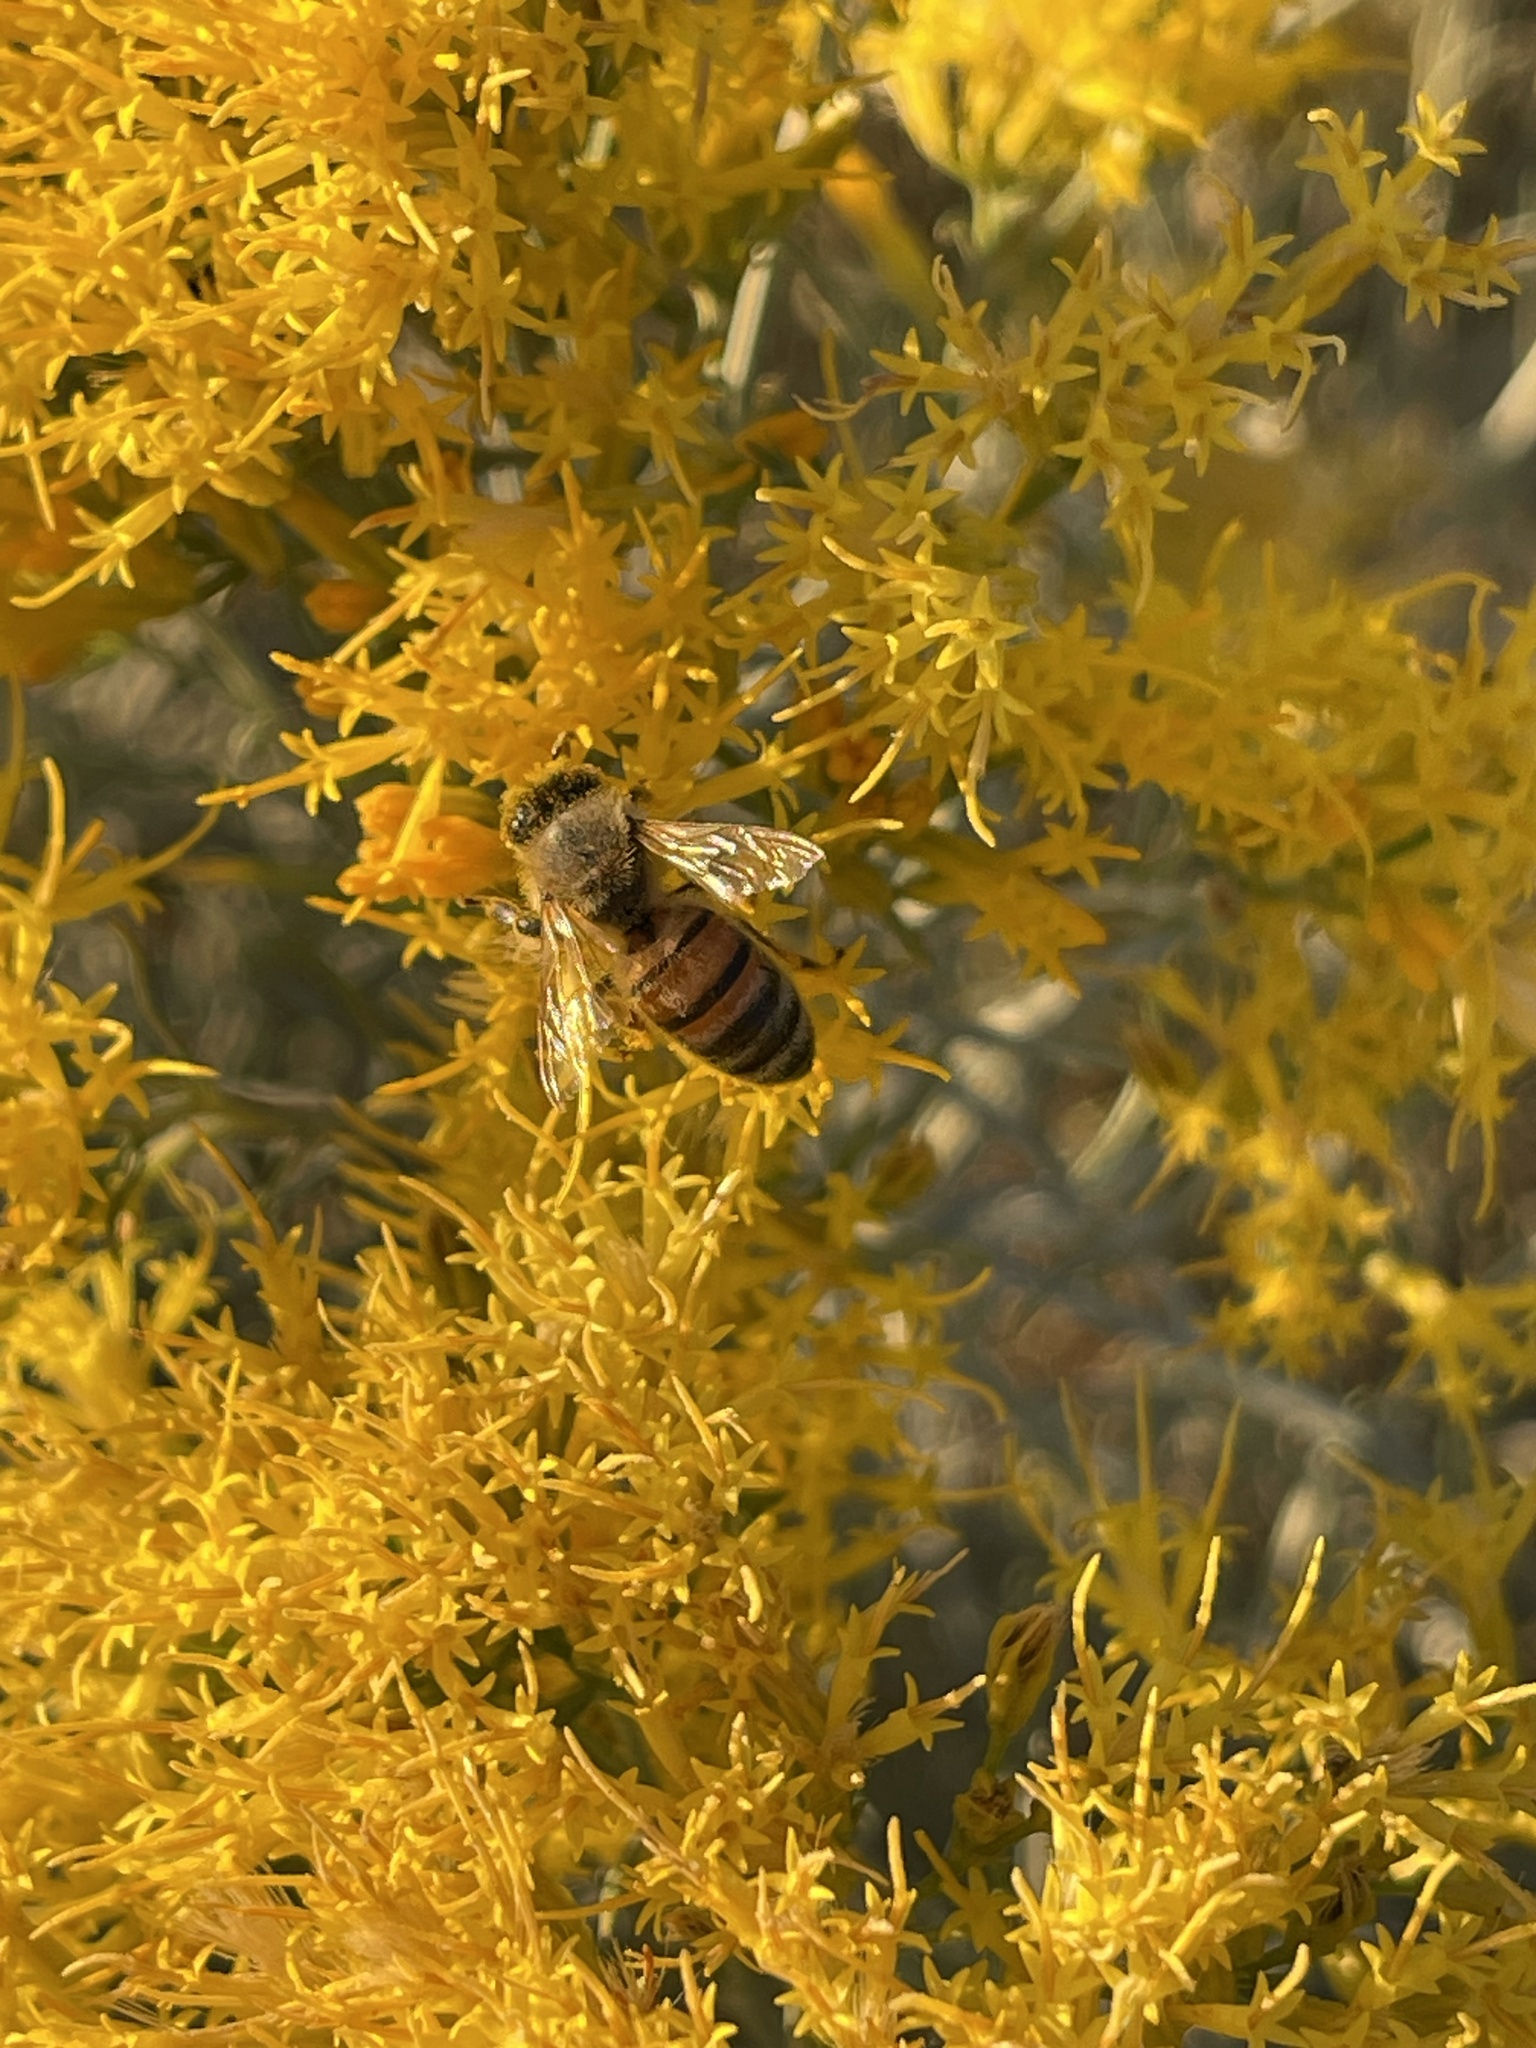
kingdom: Animalia
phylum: Arthropoda
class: Insecta
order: Hymenoptera
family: Apidae
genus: Apis
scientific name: Apis mellifera
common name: Honey bee
